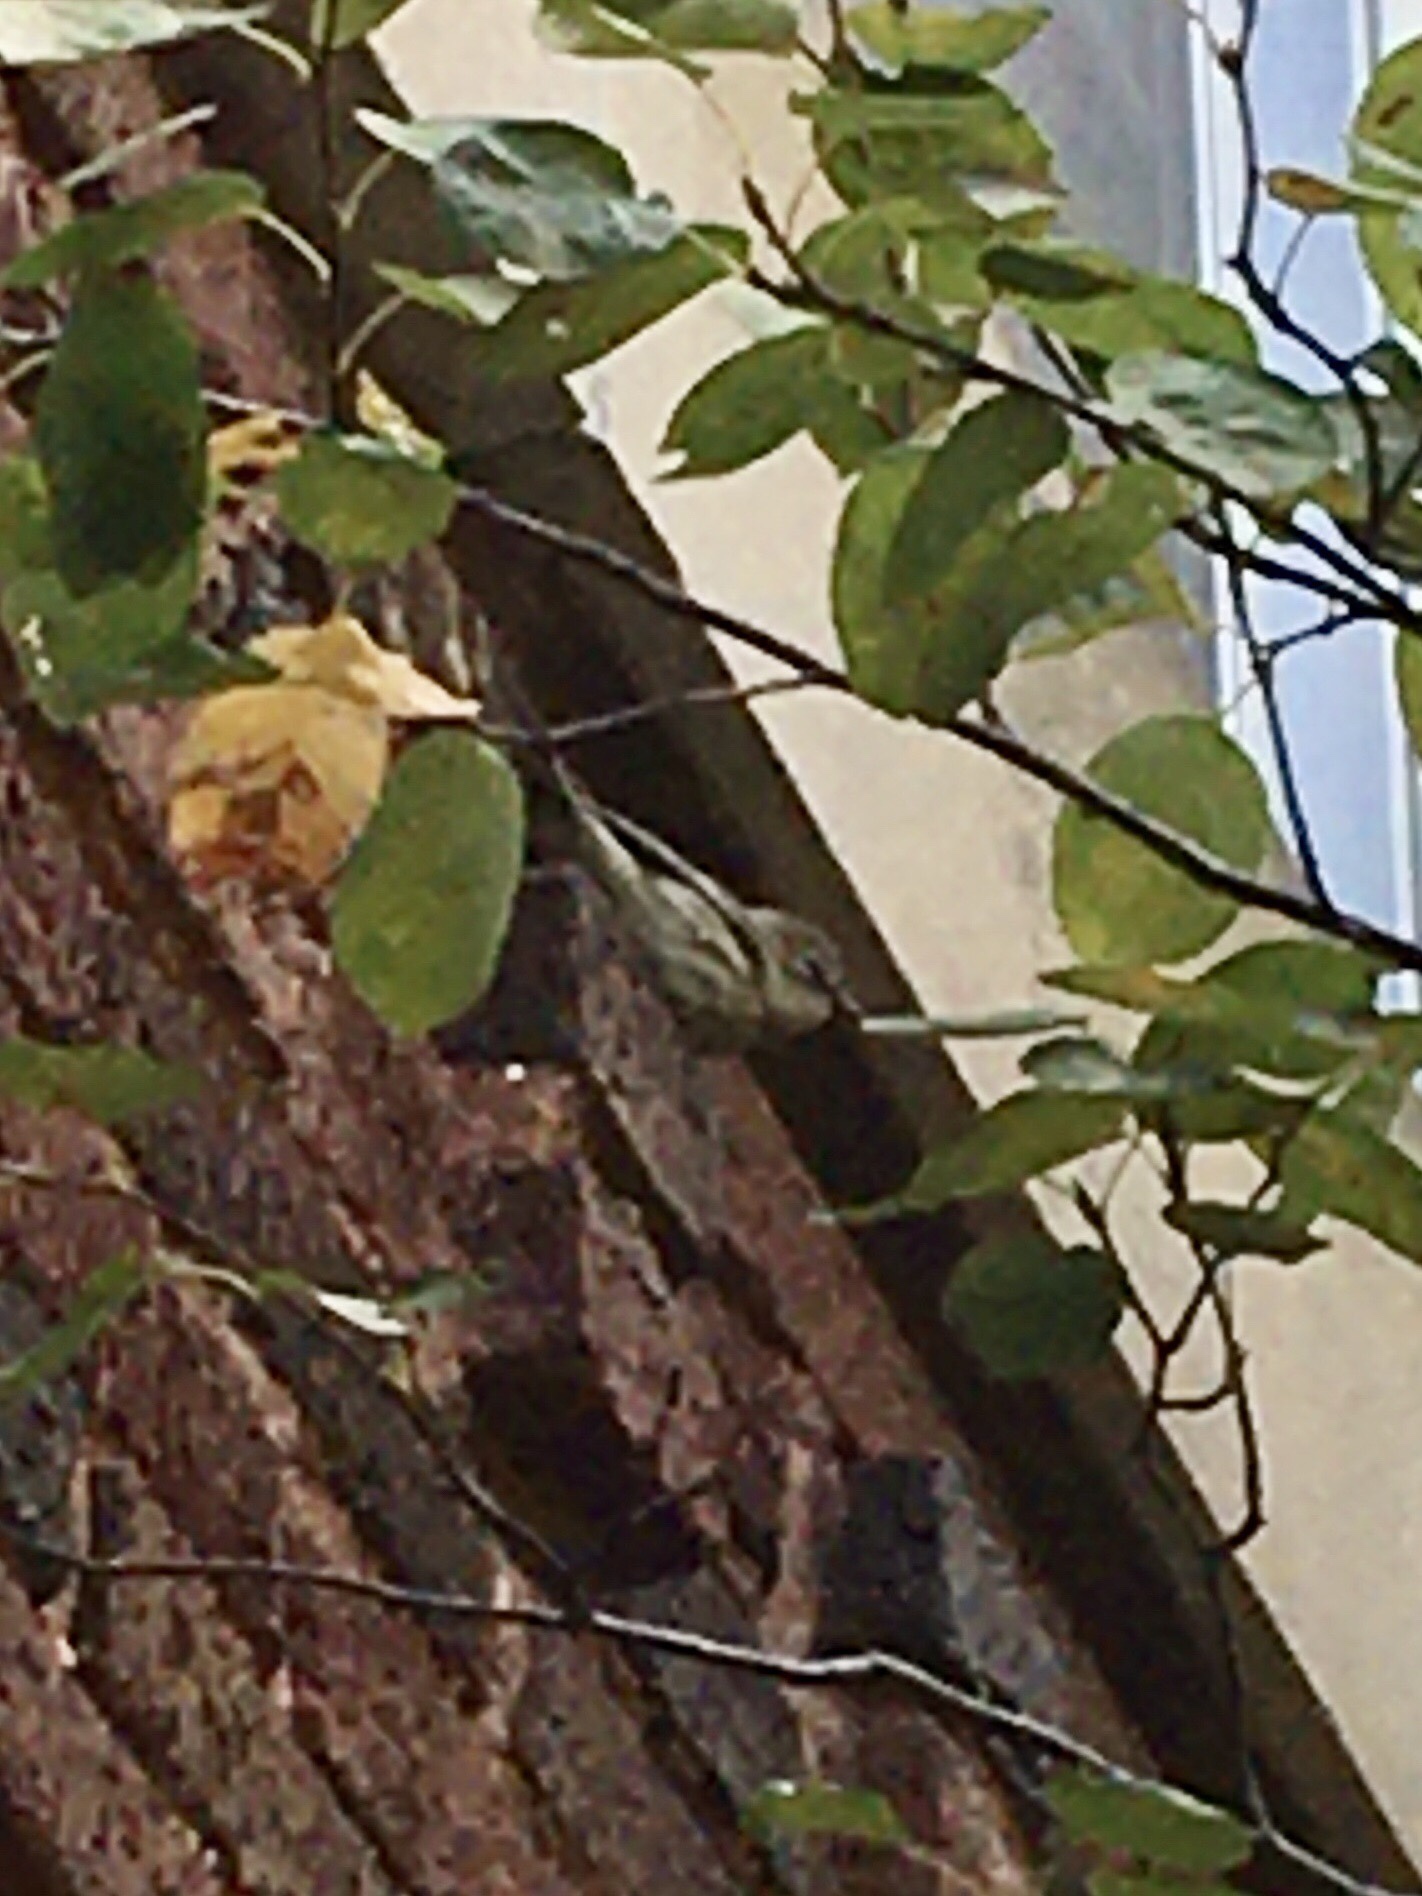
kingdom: Animalia
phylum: Chordata
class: Aves
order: Passeriformes
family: Parulidae
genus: Setophaga
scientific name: Setophaga coronata
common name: Myrtle warbler
